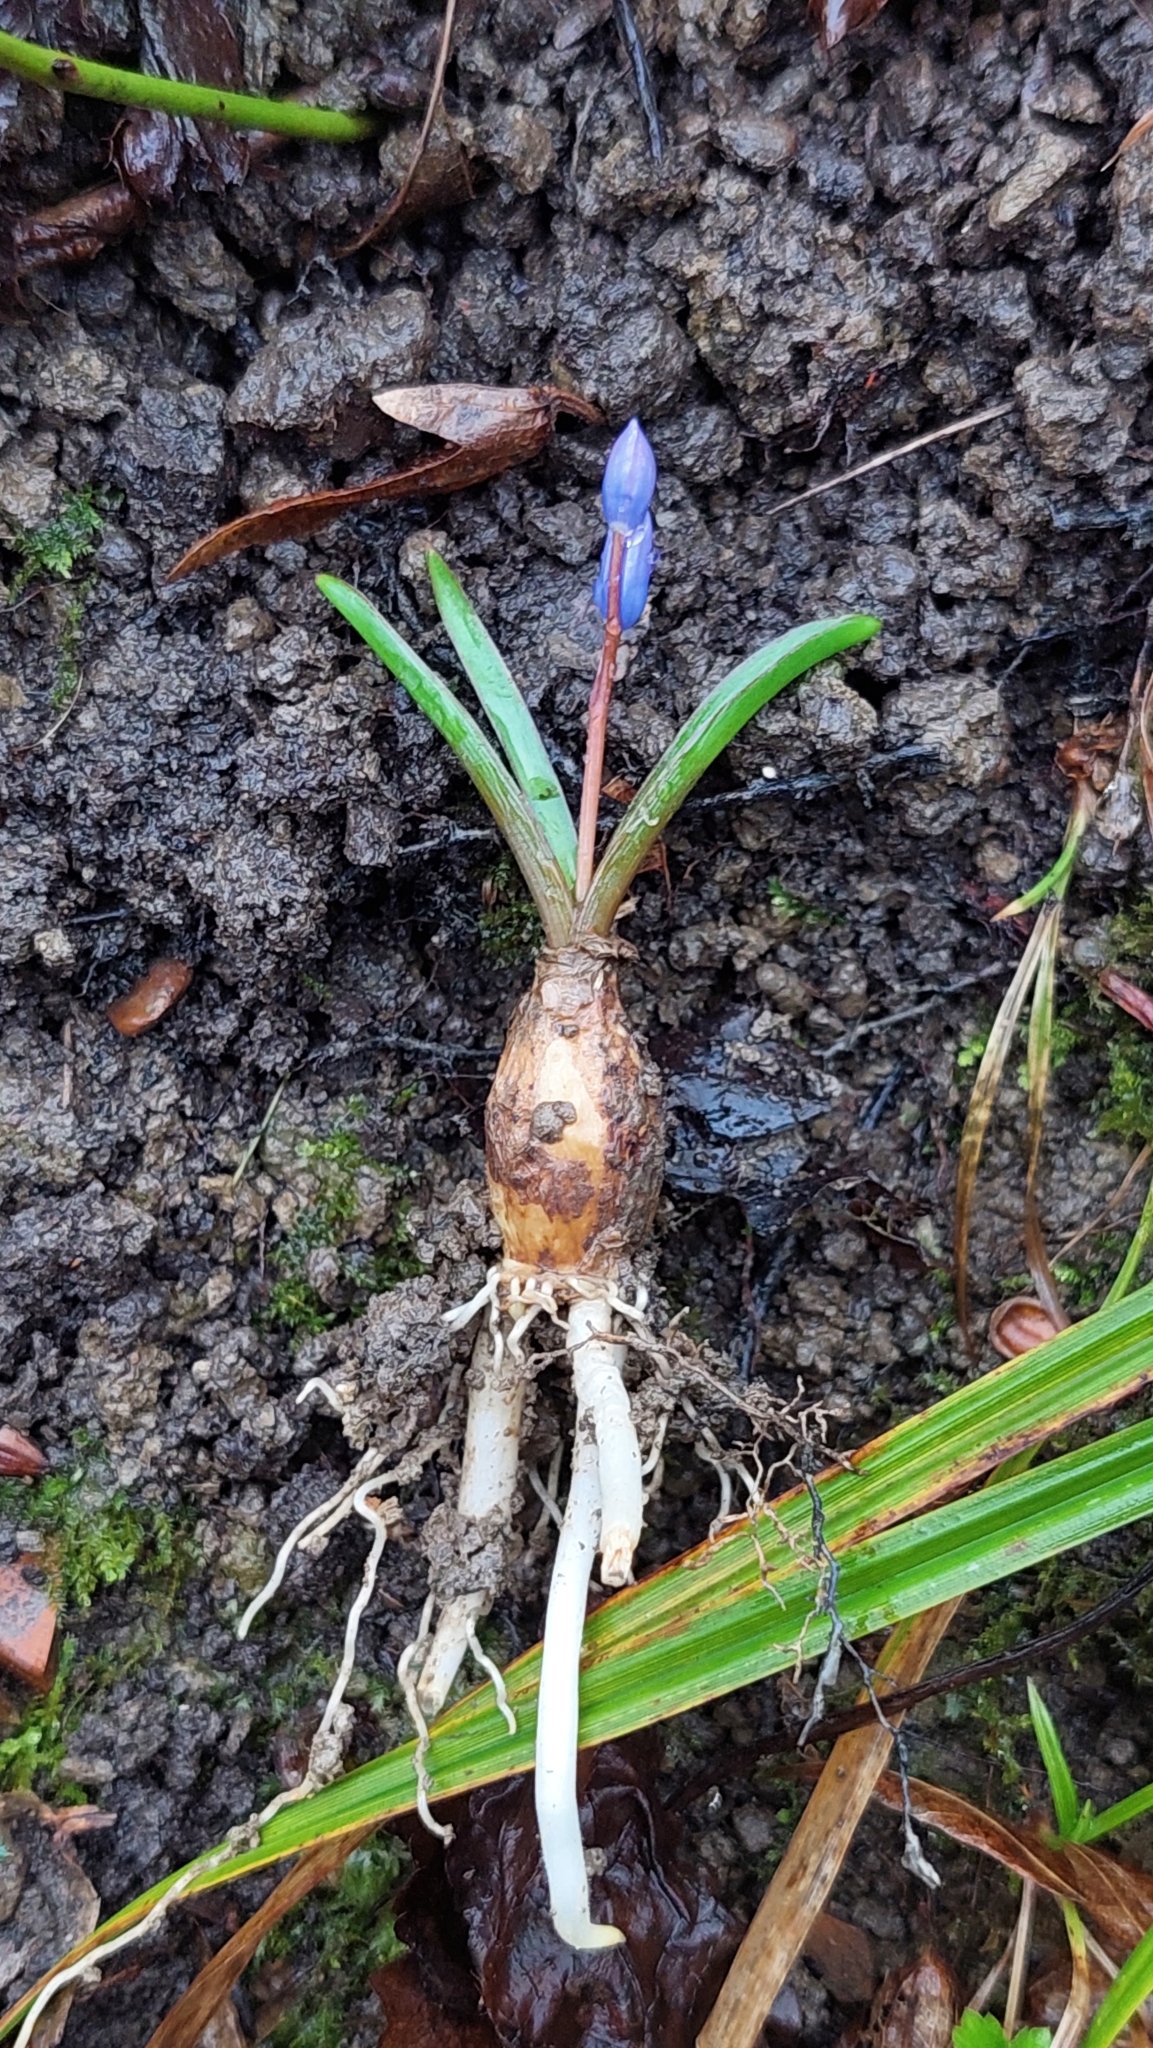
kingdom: Plantae
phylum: Tracheophyta
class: Liliopsida
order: Asparagales
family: Asparagaceae
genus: Scilla
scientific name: Scilla bifolia
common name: Alpine squill
